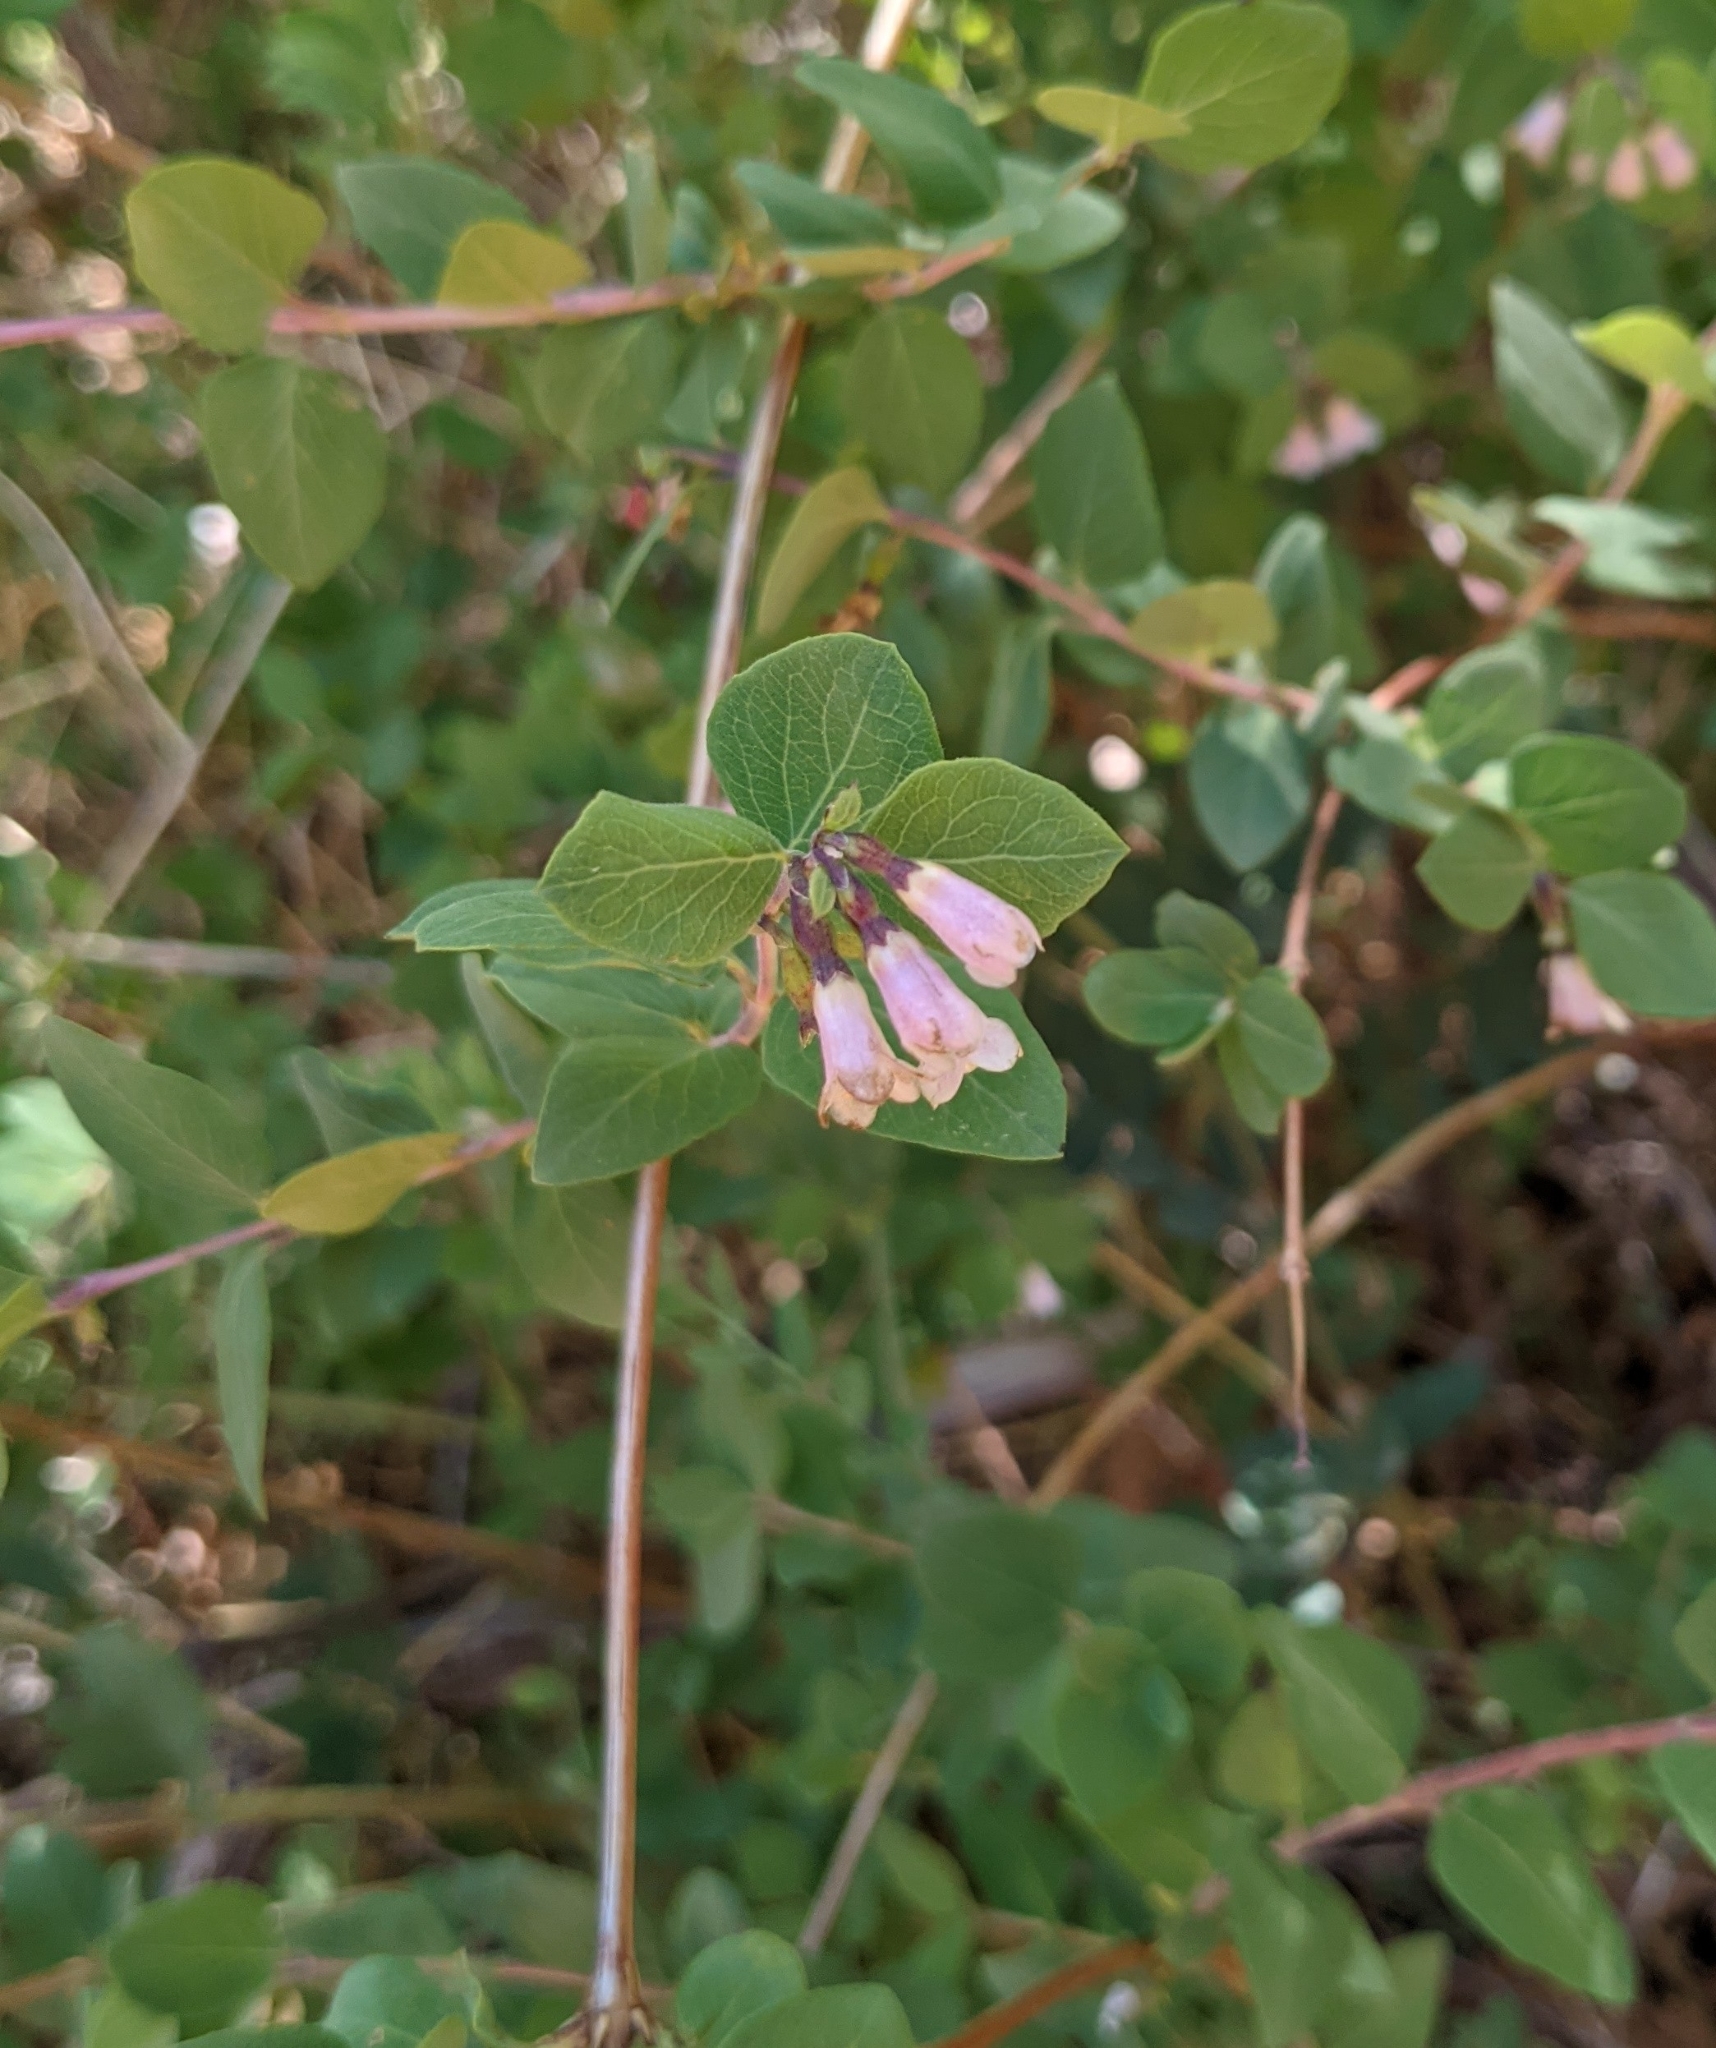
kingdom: Plantae
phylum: Tracheophyta
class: Magnoliopsida
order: Dipsacales
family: Caprifoliaceae
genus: Symphoricarpos
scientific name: Symphoricarpos rotundifolius
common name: Round-leaved snowberry
